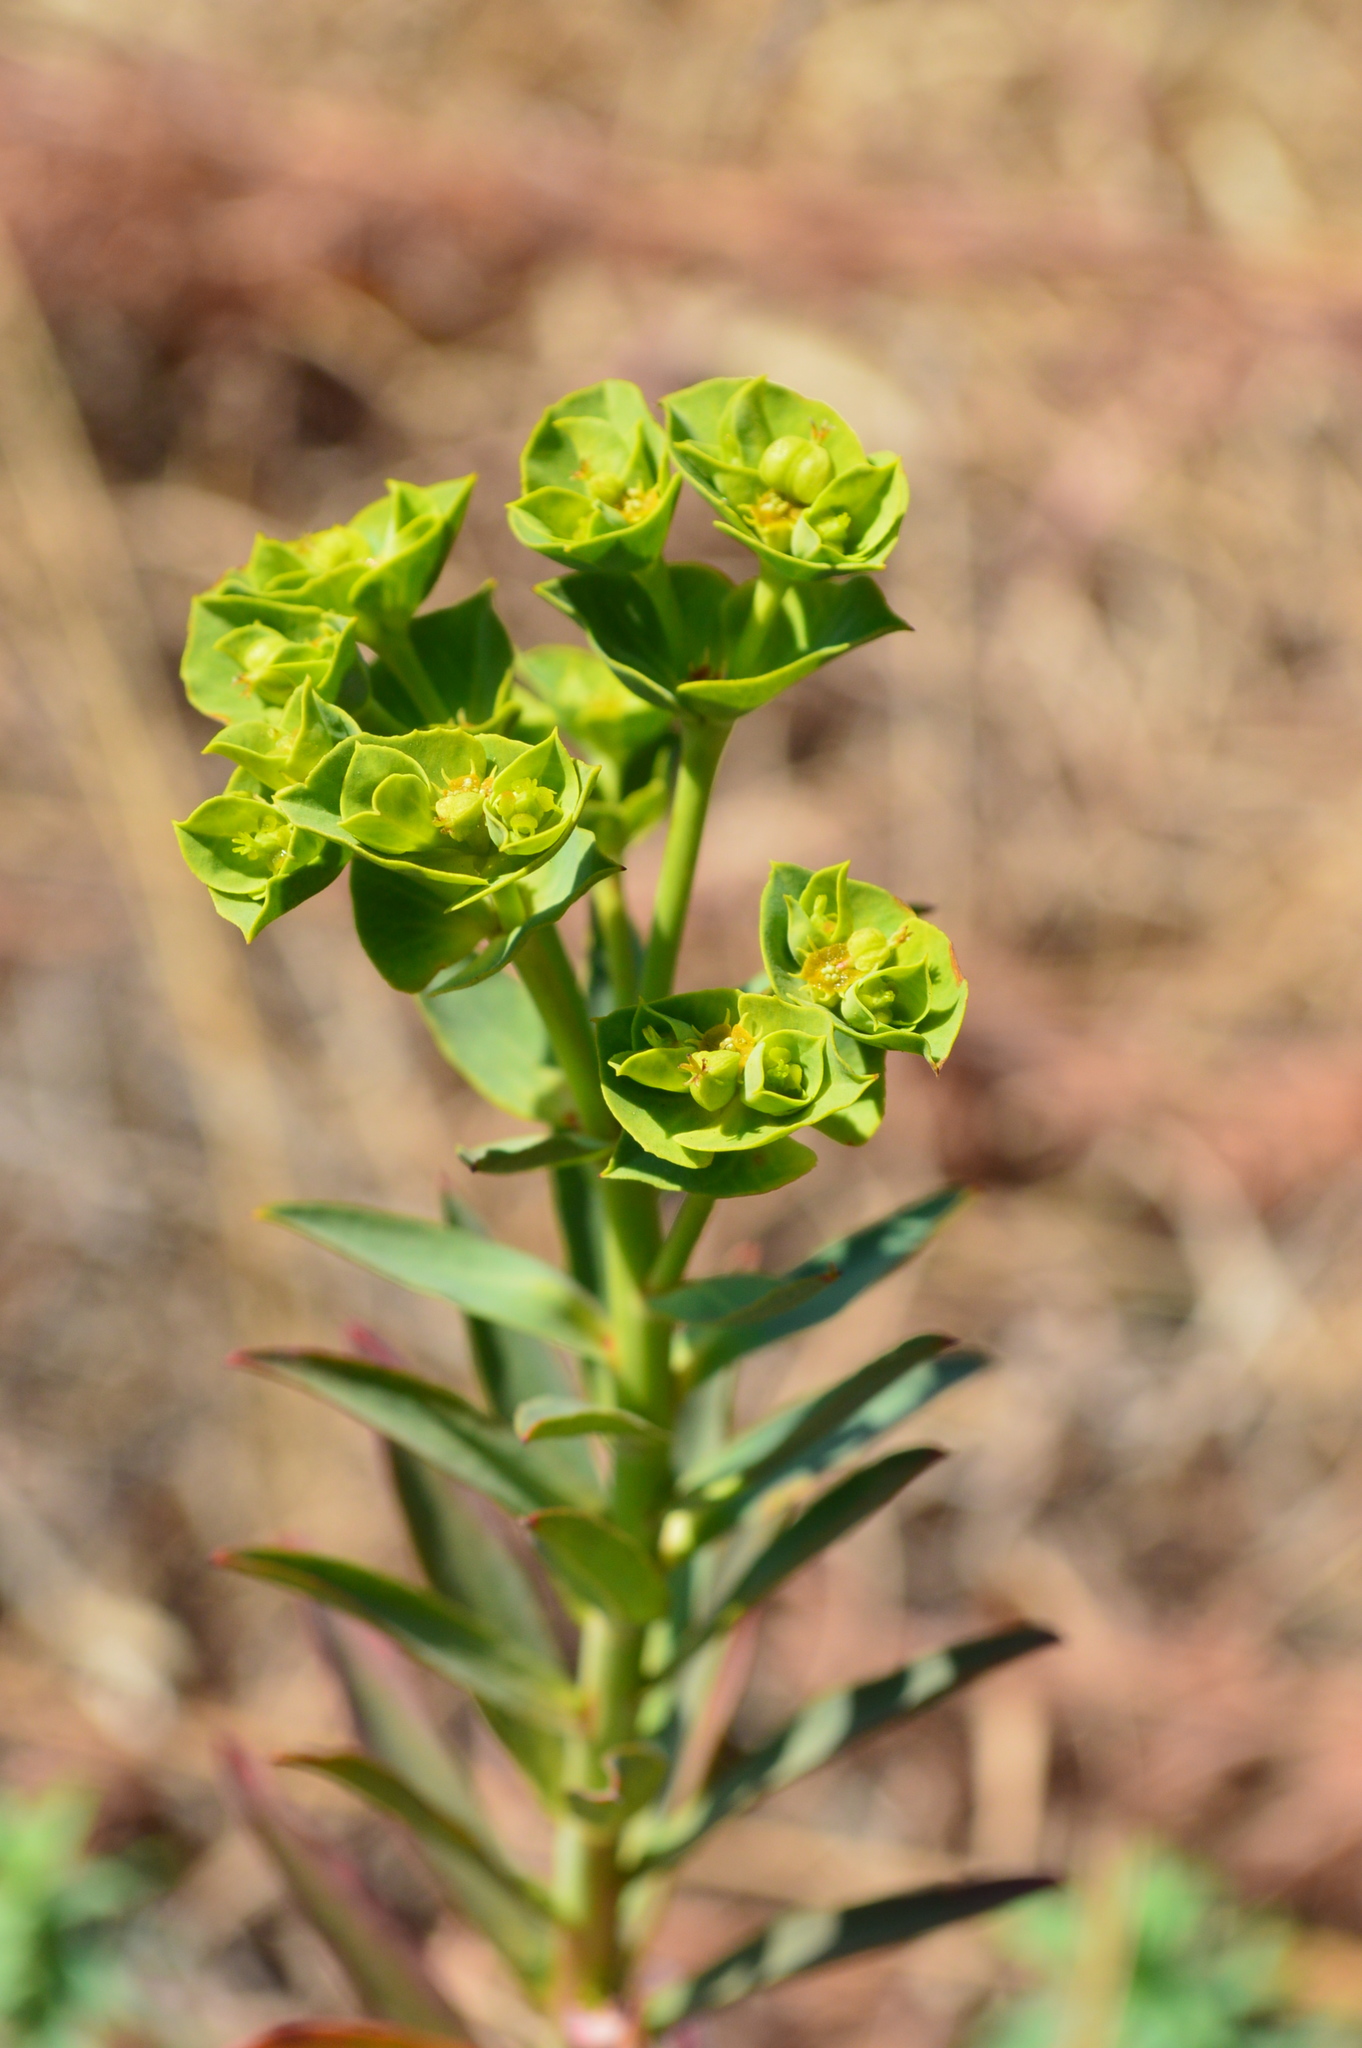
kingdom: Plantae
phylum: Tracheophyta
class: Magnoliopsida
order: Malpighiales
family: Euphorbiaceae
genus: Euphorbia
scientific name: Euphorbia terracina
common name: Geraldton carnation weed
